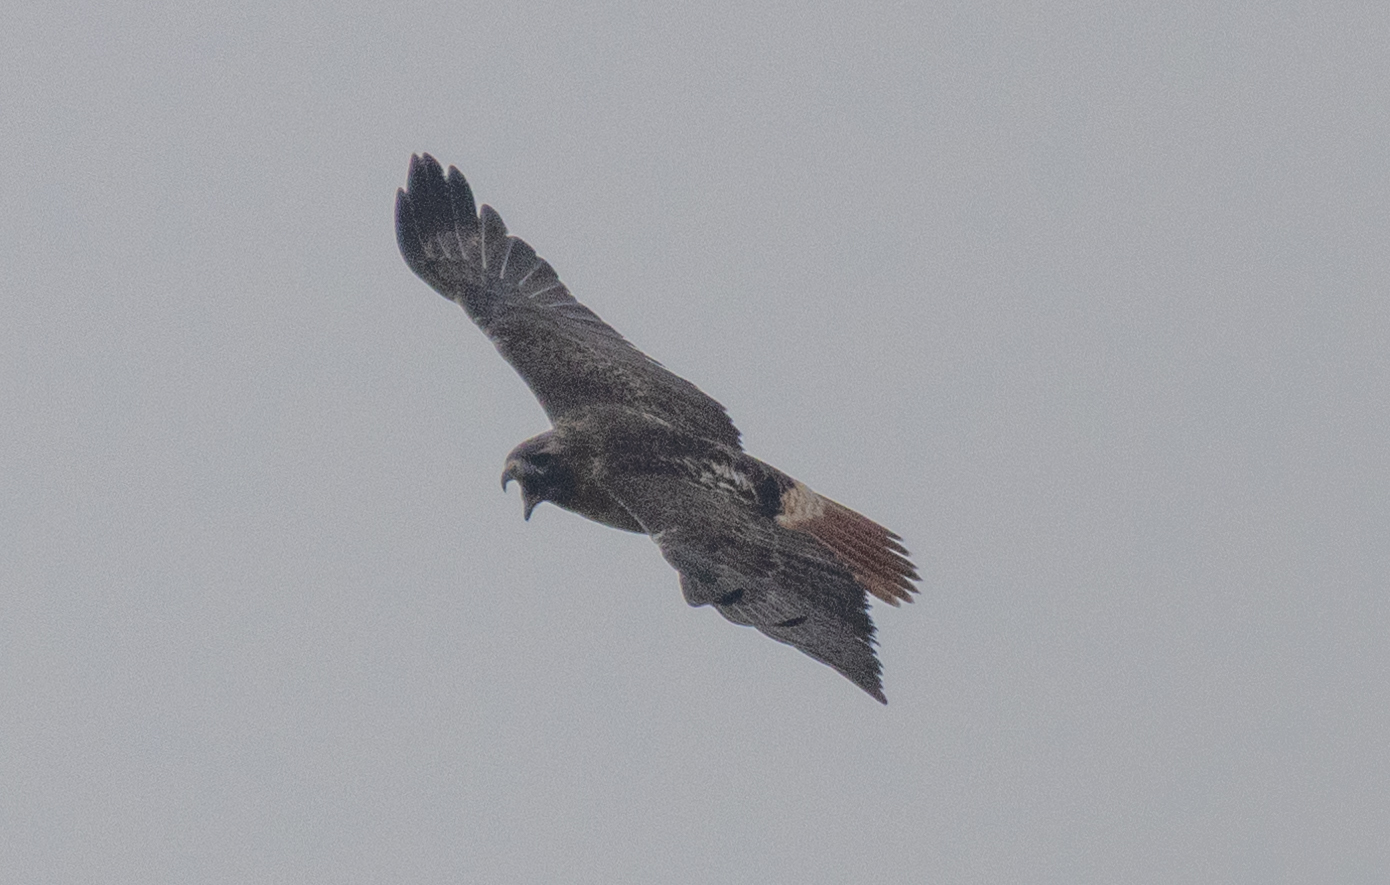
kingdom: Animalia
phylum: Chordata
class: Aves
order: Accipitriformes
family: Accipitridae
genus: Buteo
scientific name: Buteo jamaicensis
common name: Red-tailed hawk
